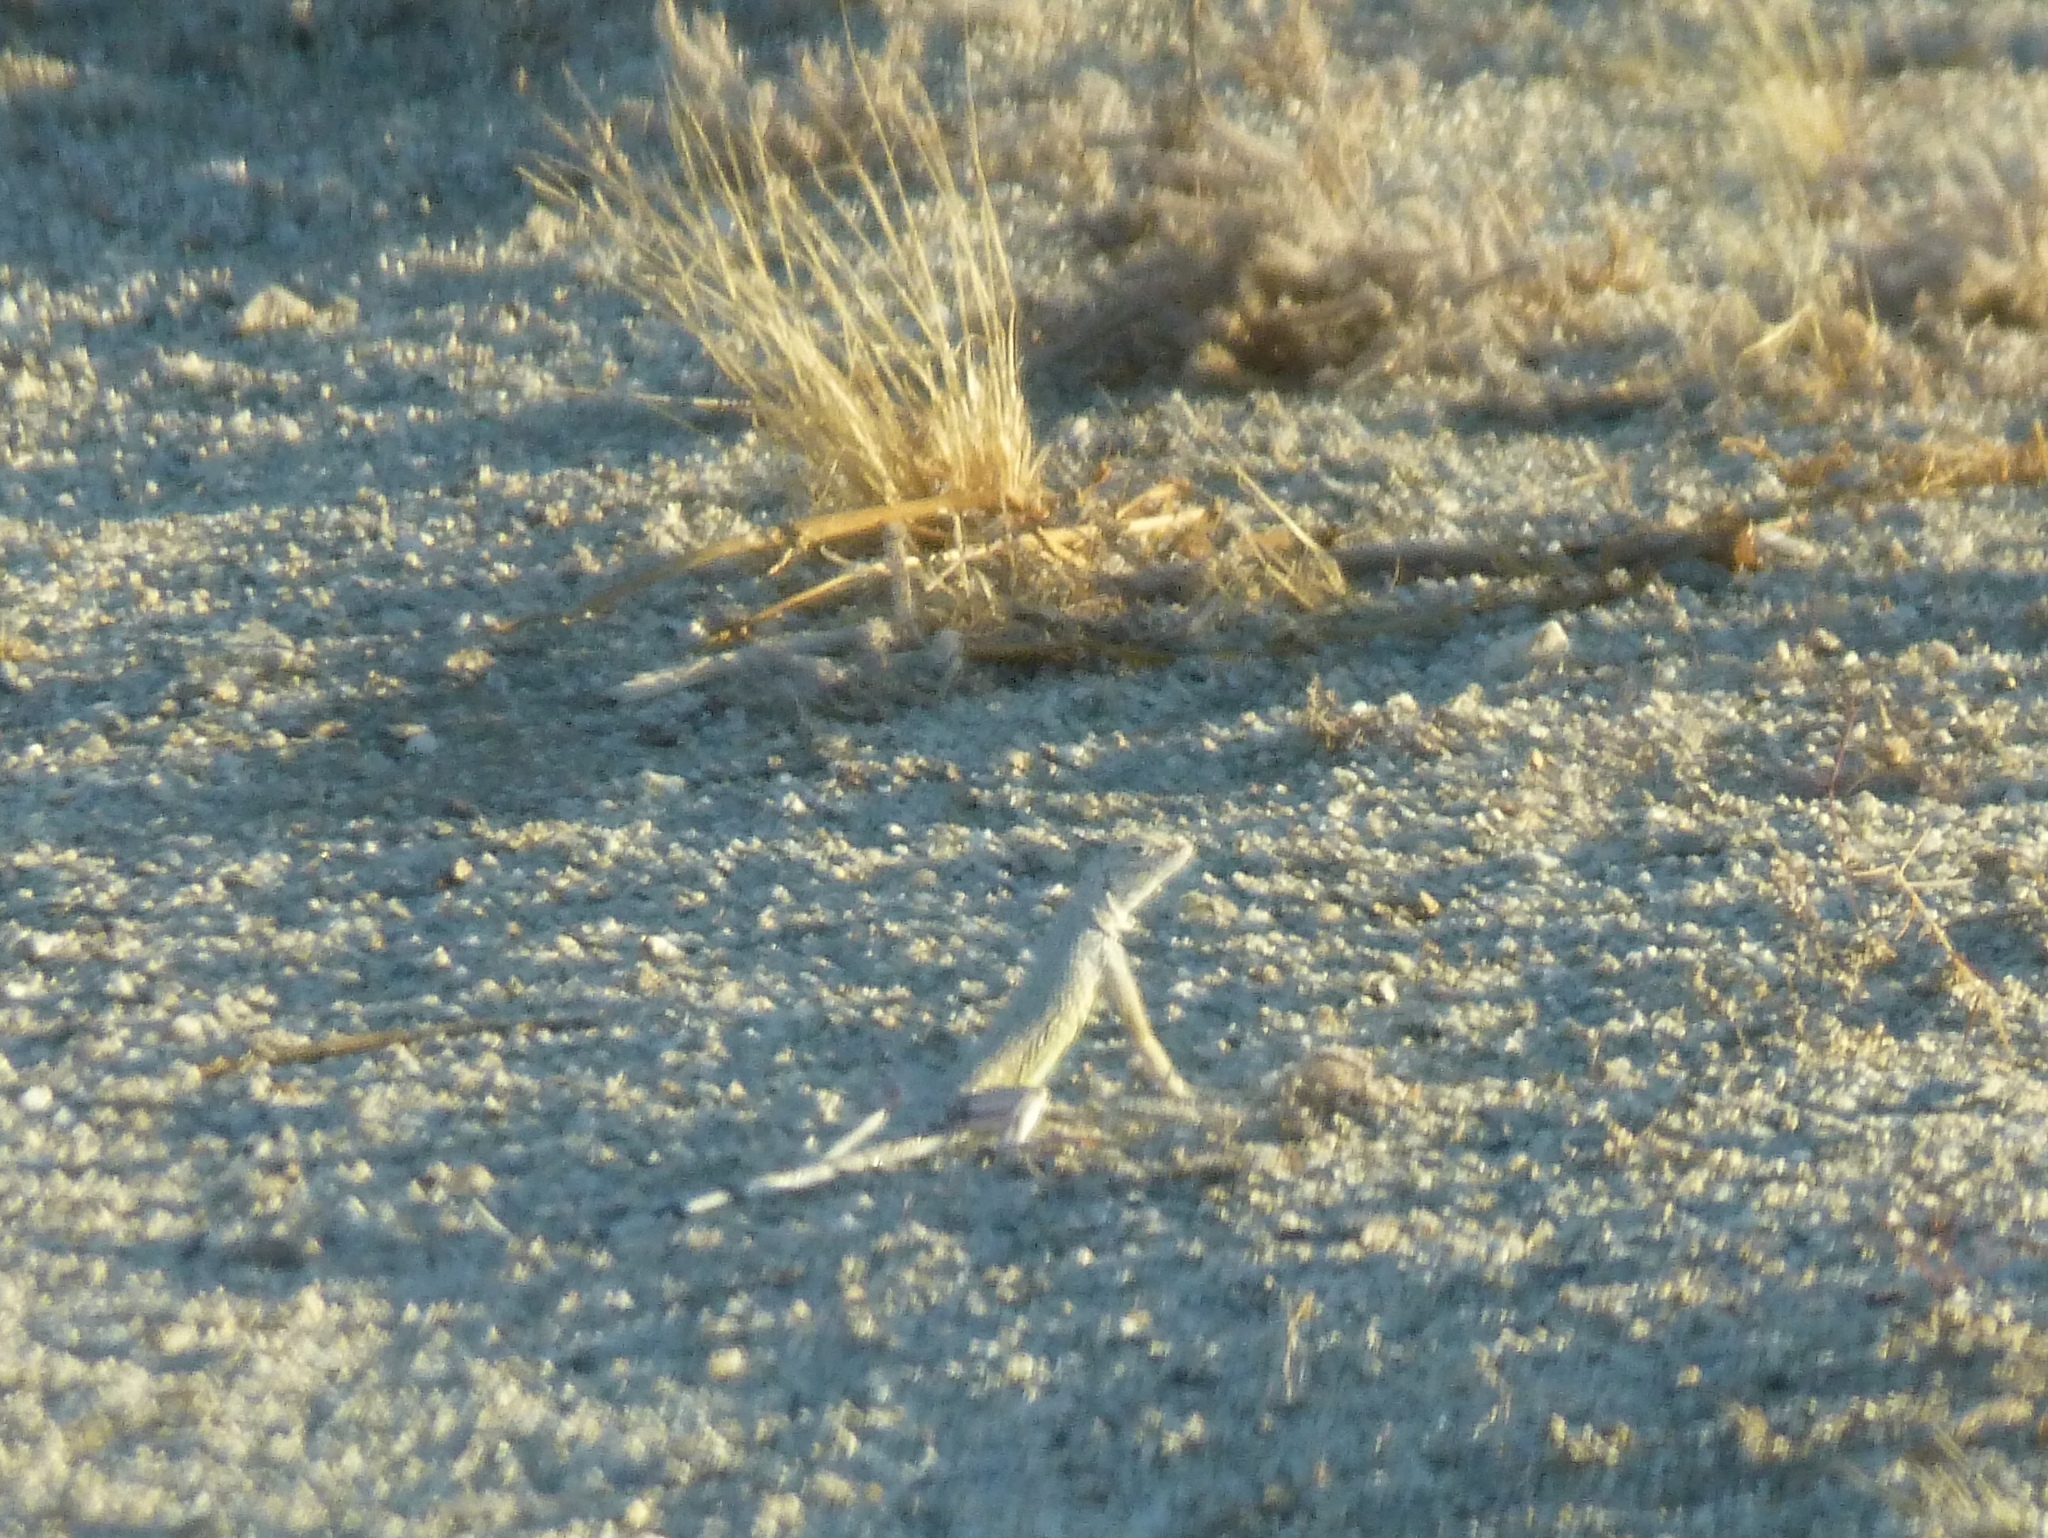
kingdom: Animalia
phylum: Chordata
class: Squamata
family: Phrynosomatidae
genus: Callisaurus
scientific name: Callisaurus draconoides
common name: Zebra-tailed lizard
